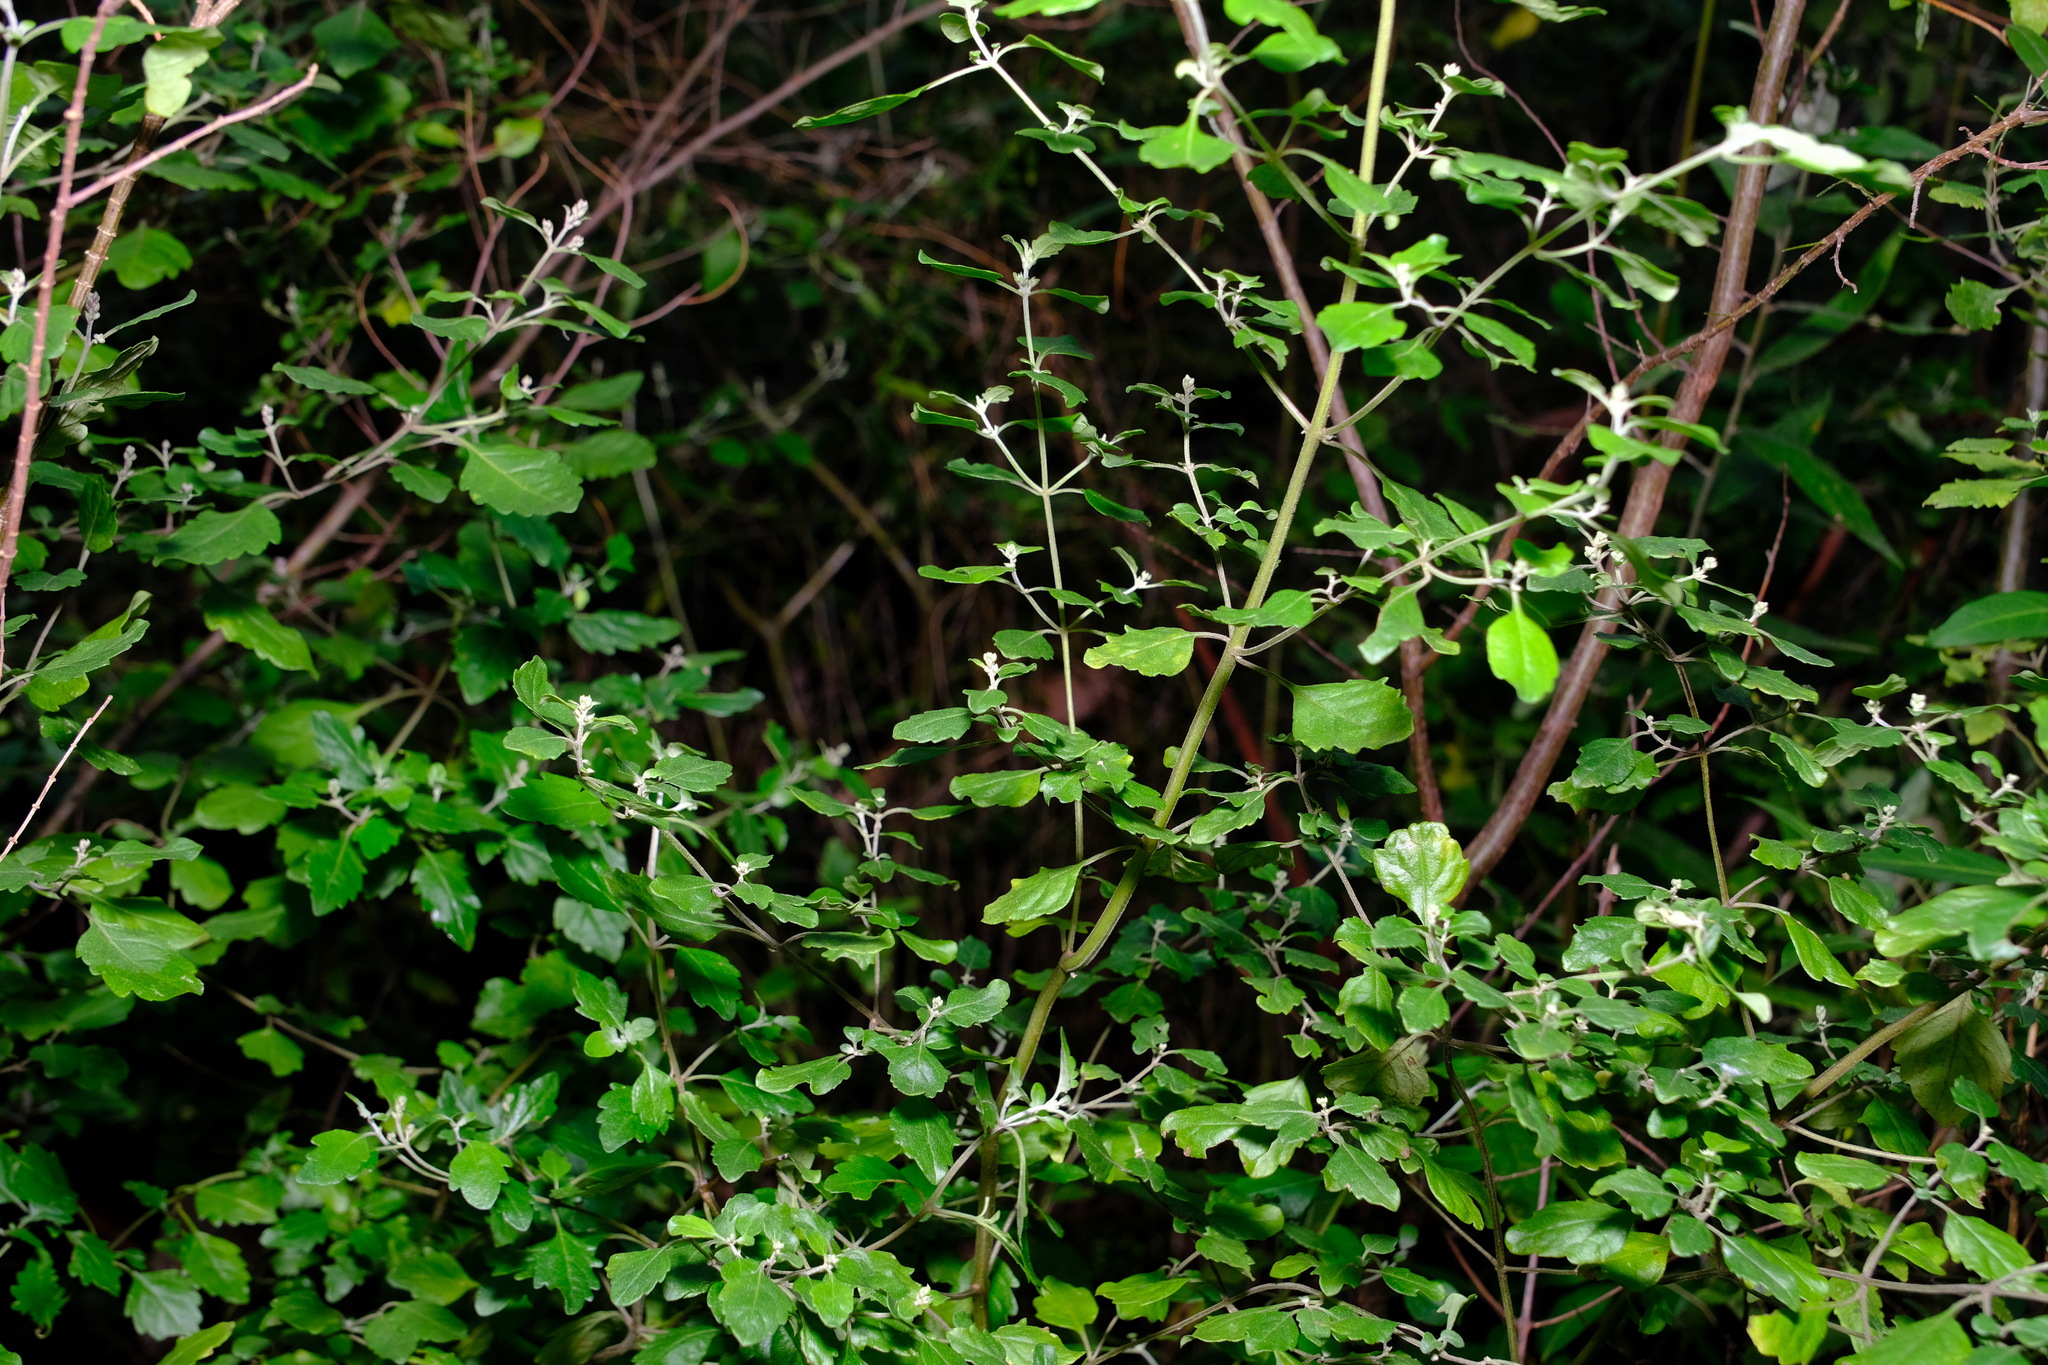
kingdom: Plantae
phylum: Tracheophyta
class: Magnoliopsida
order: Lamiales
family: Lamiaceae
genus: Prostanthera
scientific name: Prostanthera melissifolia
